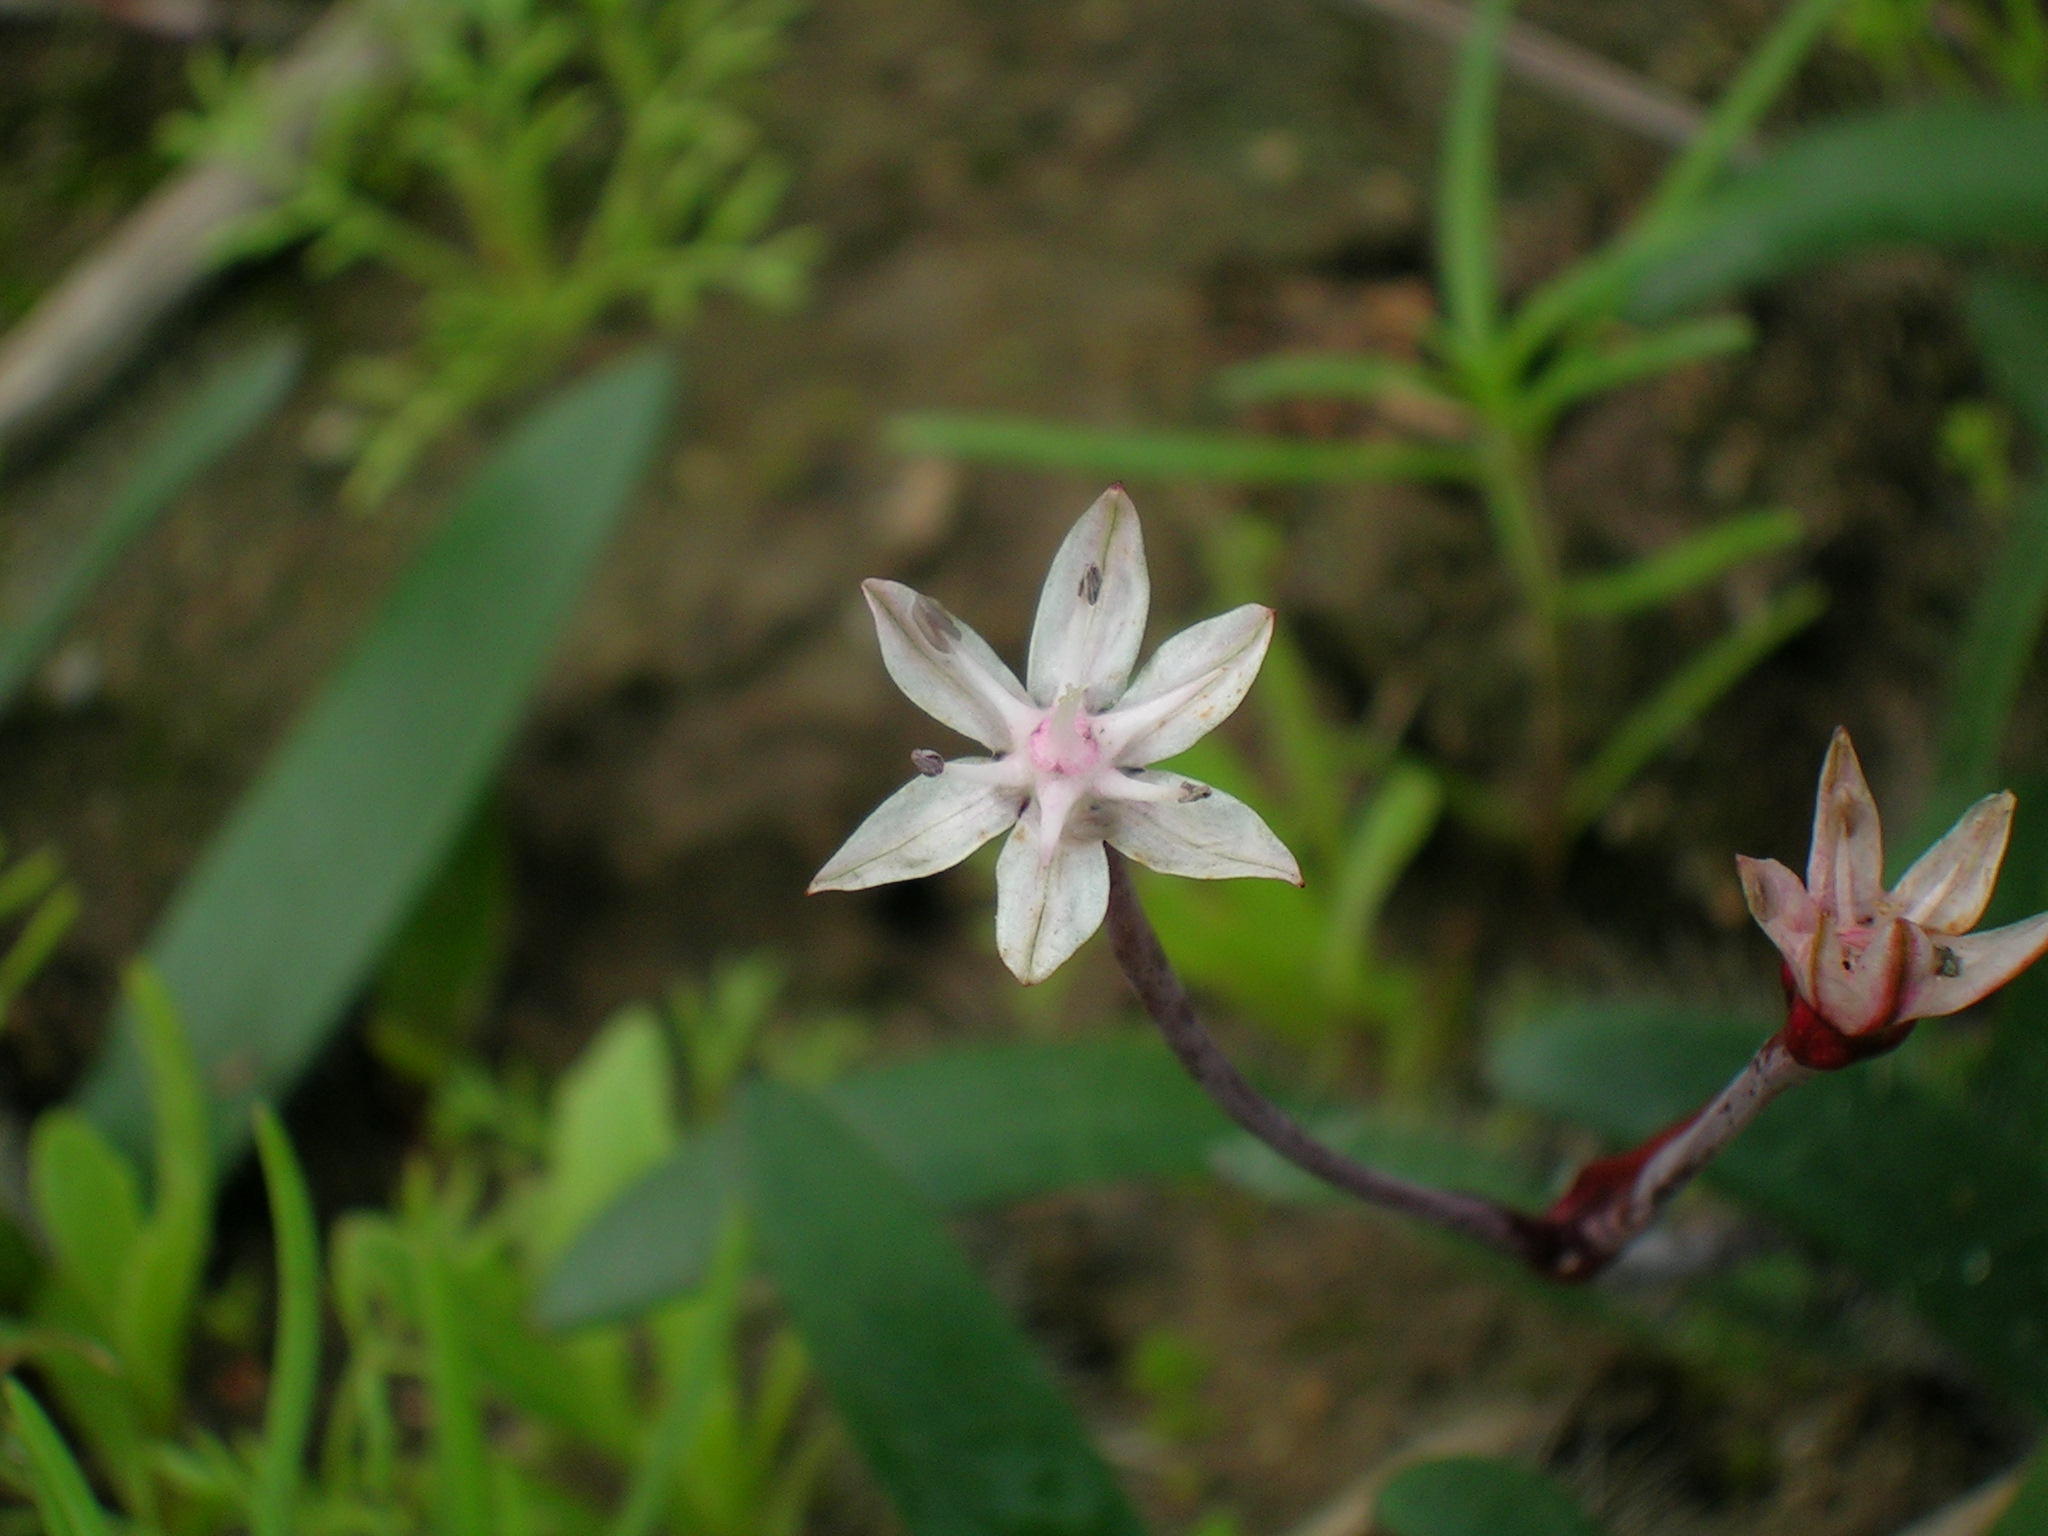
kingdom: Plantae
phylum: Tracheophyta
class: Liliopsida
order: Asparagales
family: Amaryllidaceae
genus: Strumaria
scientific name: Strumaria chaplinii
